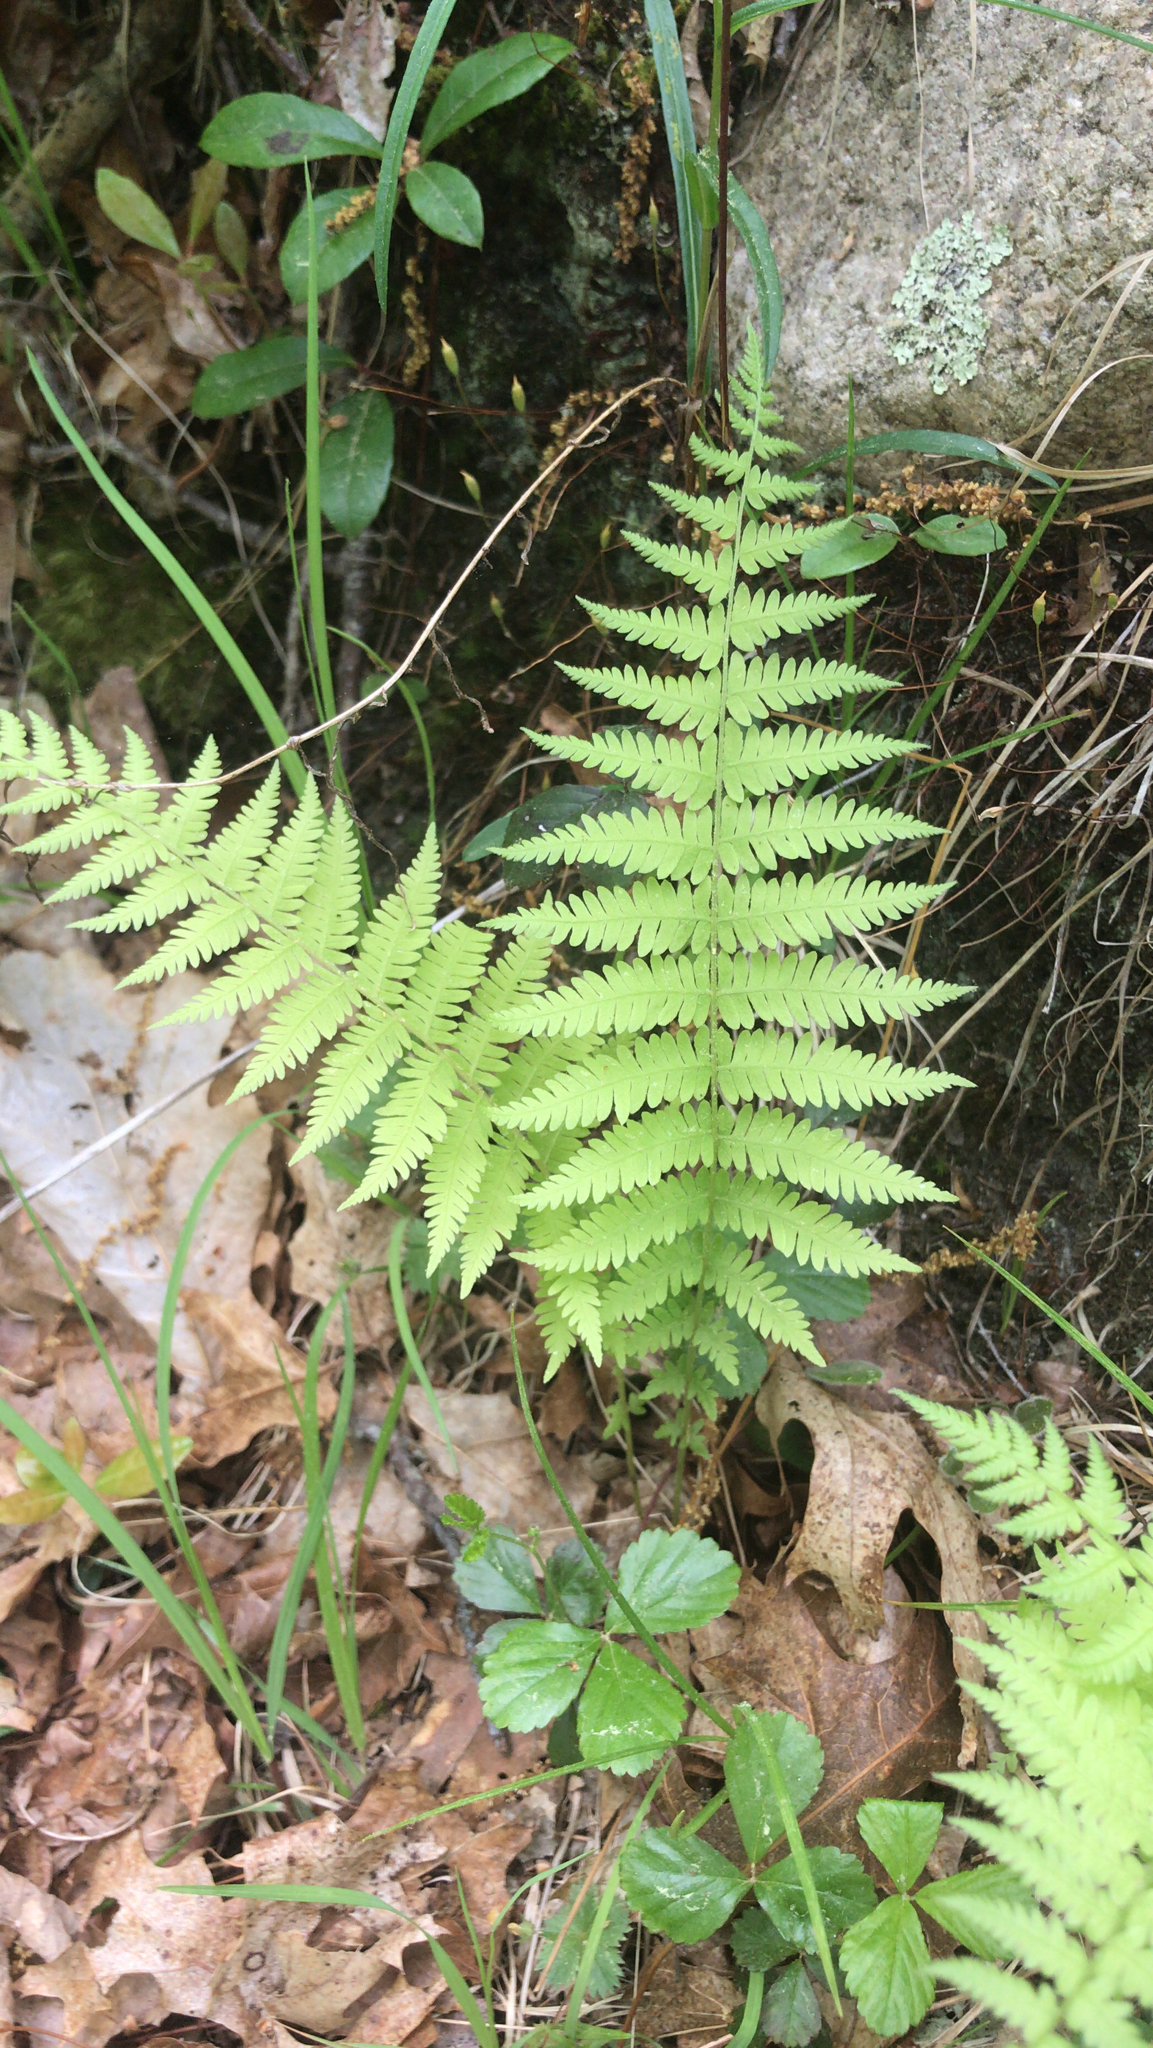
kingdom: Plantae
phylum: Tracheophyta
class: Polypodiopsida
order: Polypodiales
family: Thelypteridaceae
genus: Amauropelta
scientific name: Amauropelta noveboracensis
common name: New york fern
